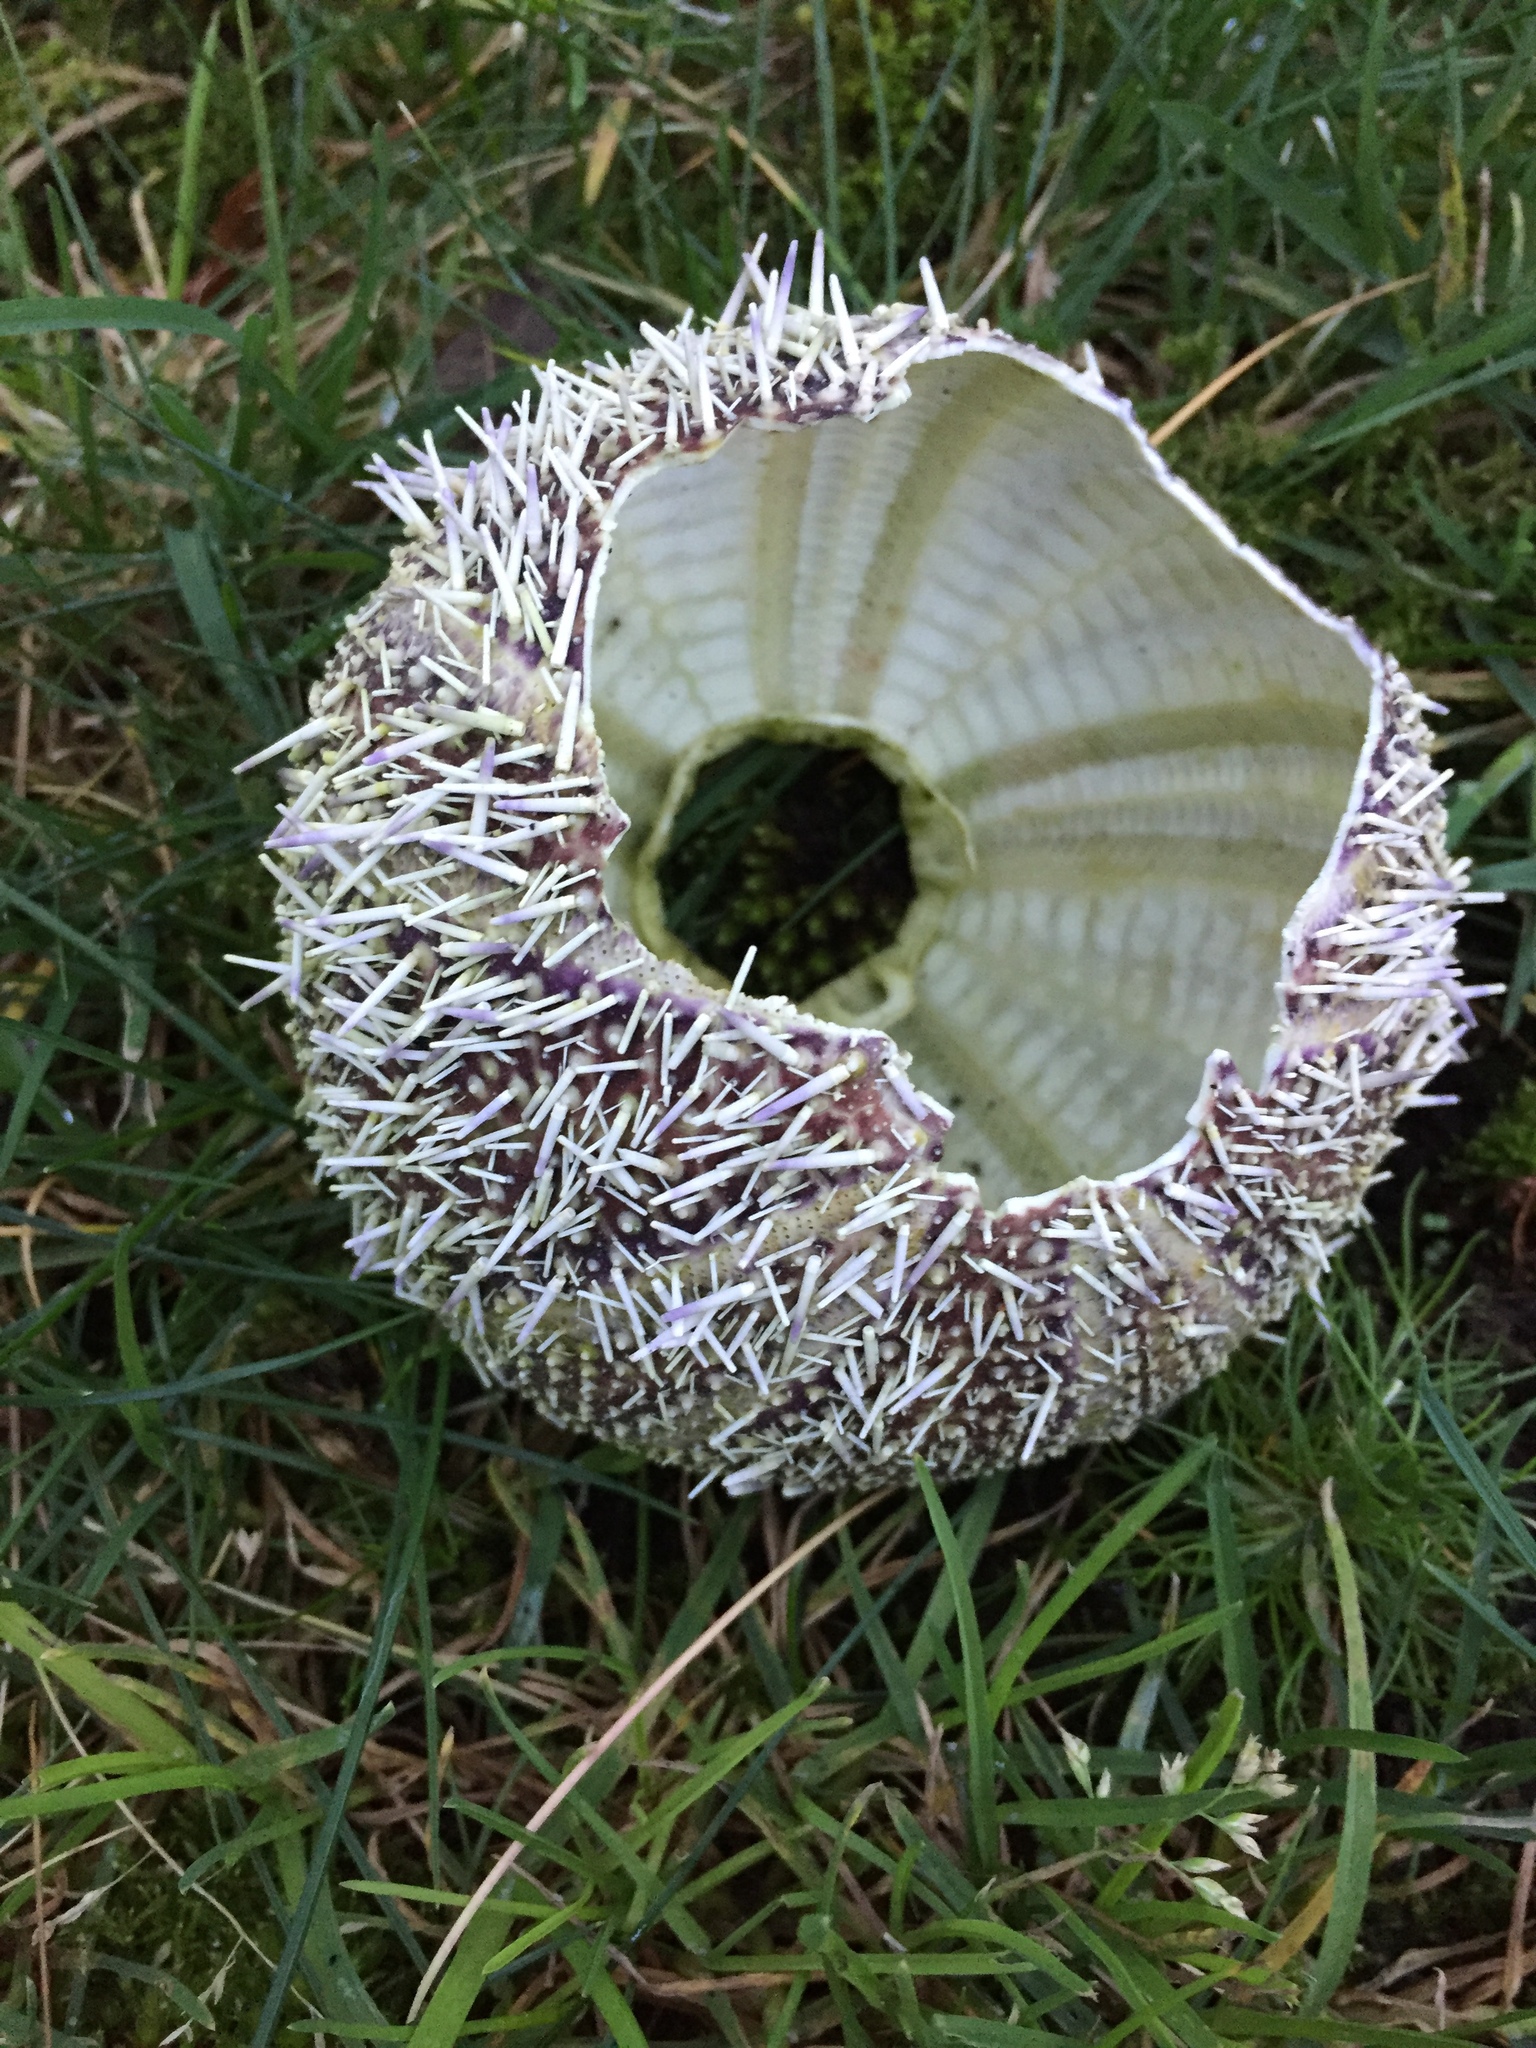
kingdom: Animalia
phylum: Echinodermata
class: Echinoidea
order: Camarodonta
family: Echinidae
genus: Echinus
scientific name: Echinus esculentus
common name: Edible sea urchin
